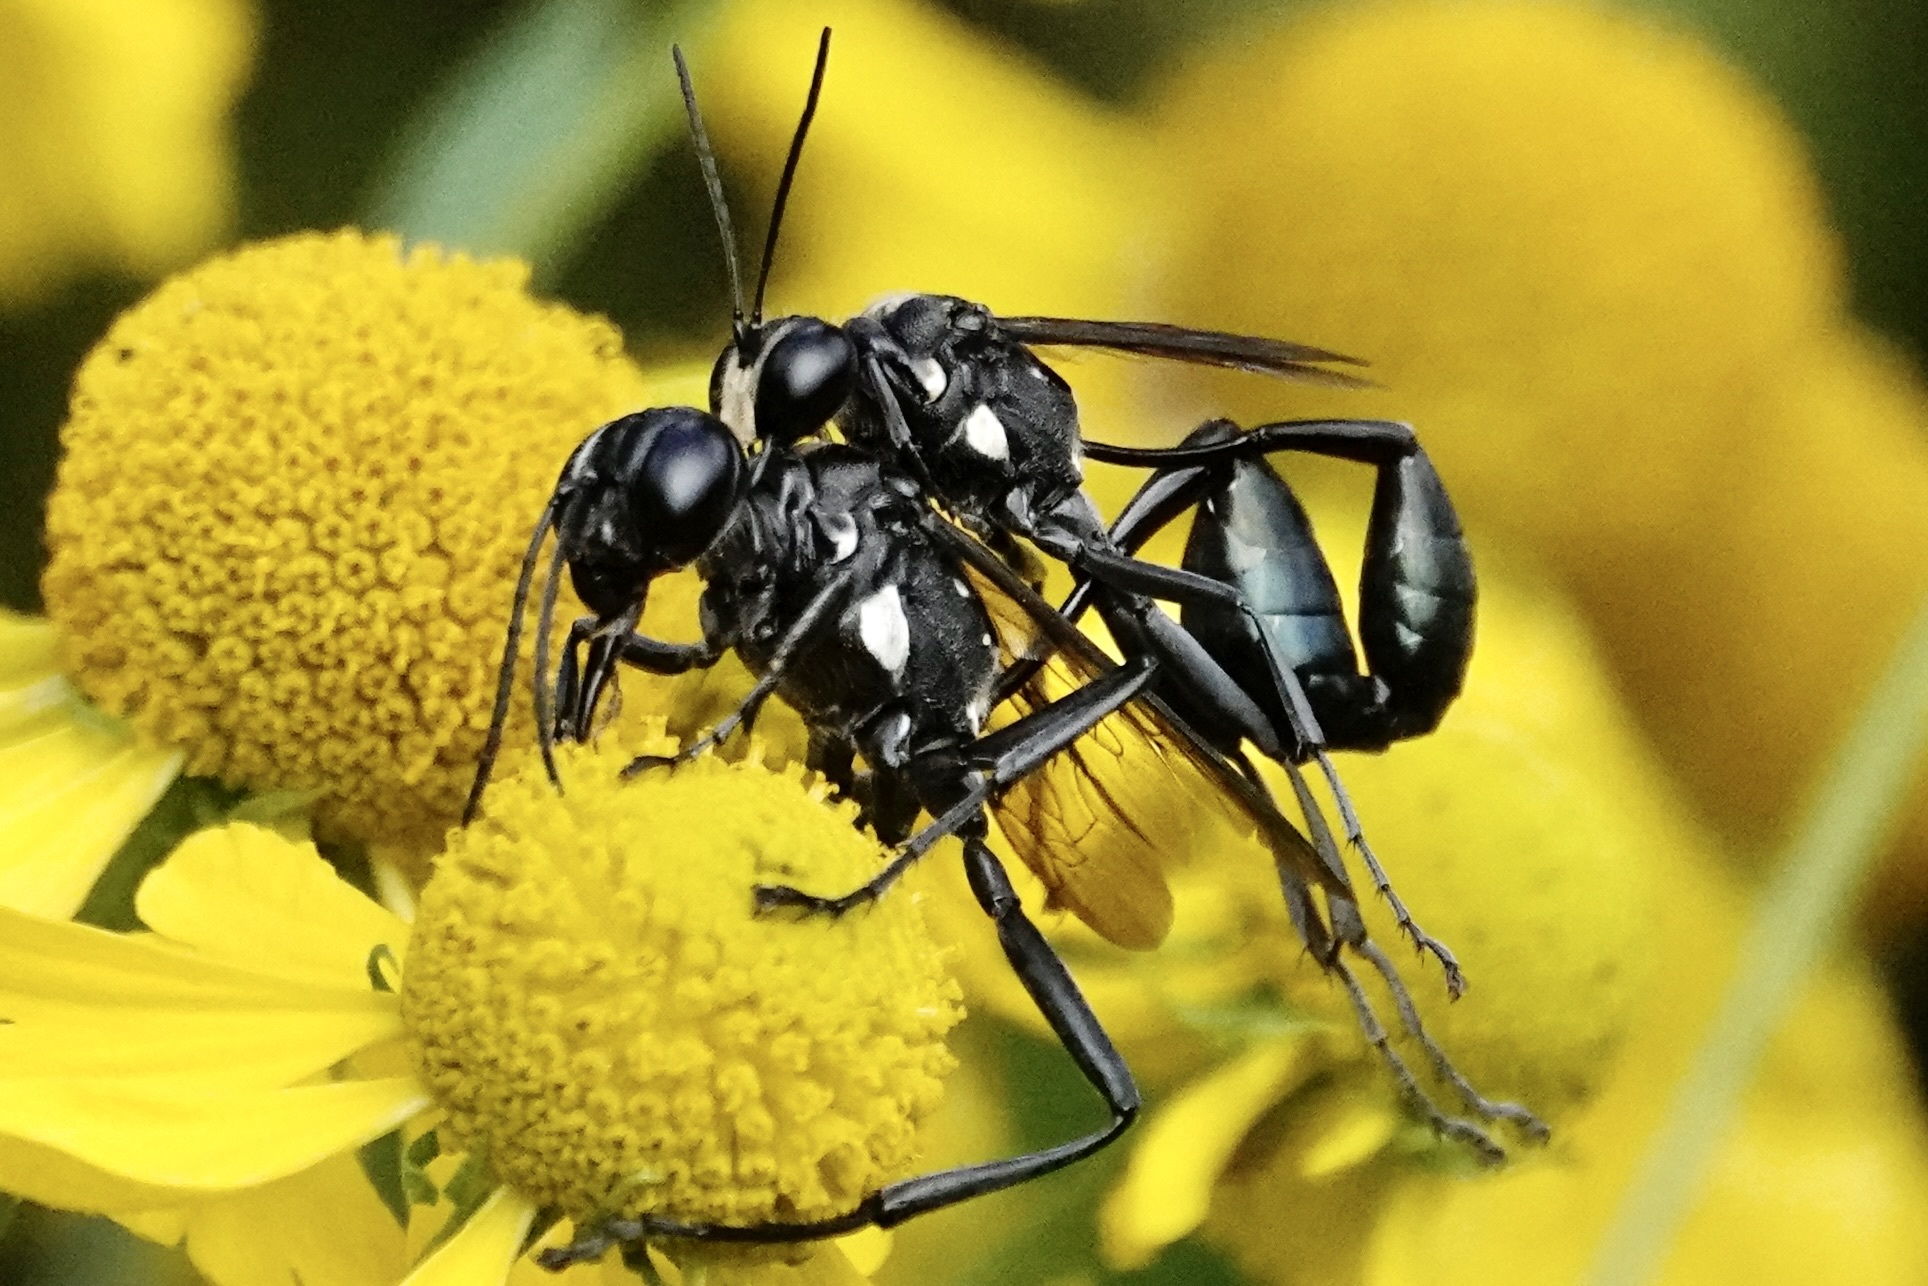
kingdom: Animalia
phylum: Arthropoda
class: Insecta
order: Hymenoptera
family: Sphecidae
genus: Eremnophila
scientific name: Eremnophila aureonotata
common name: Gold-marked thread-waisted wasp
